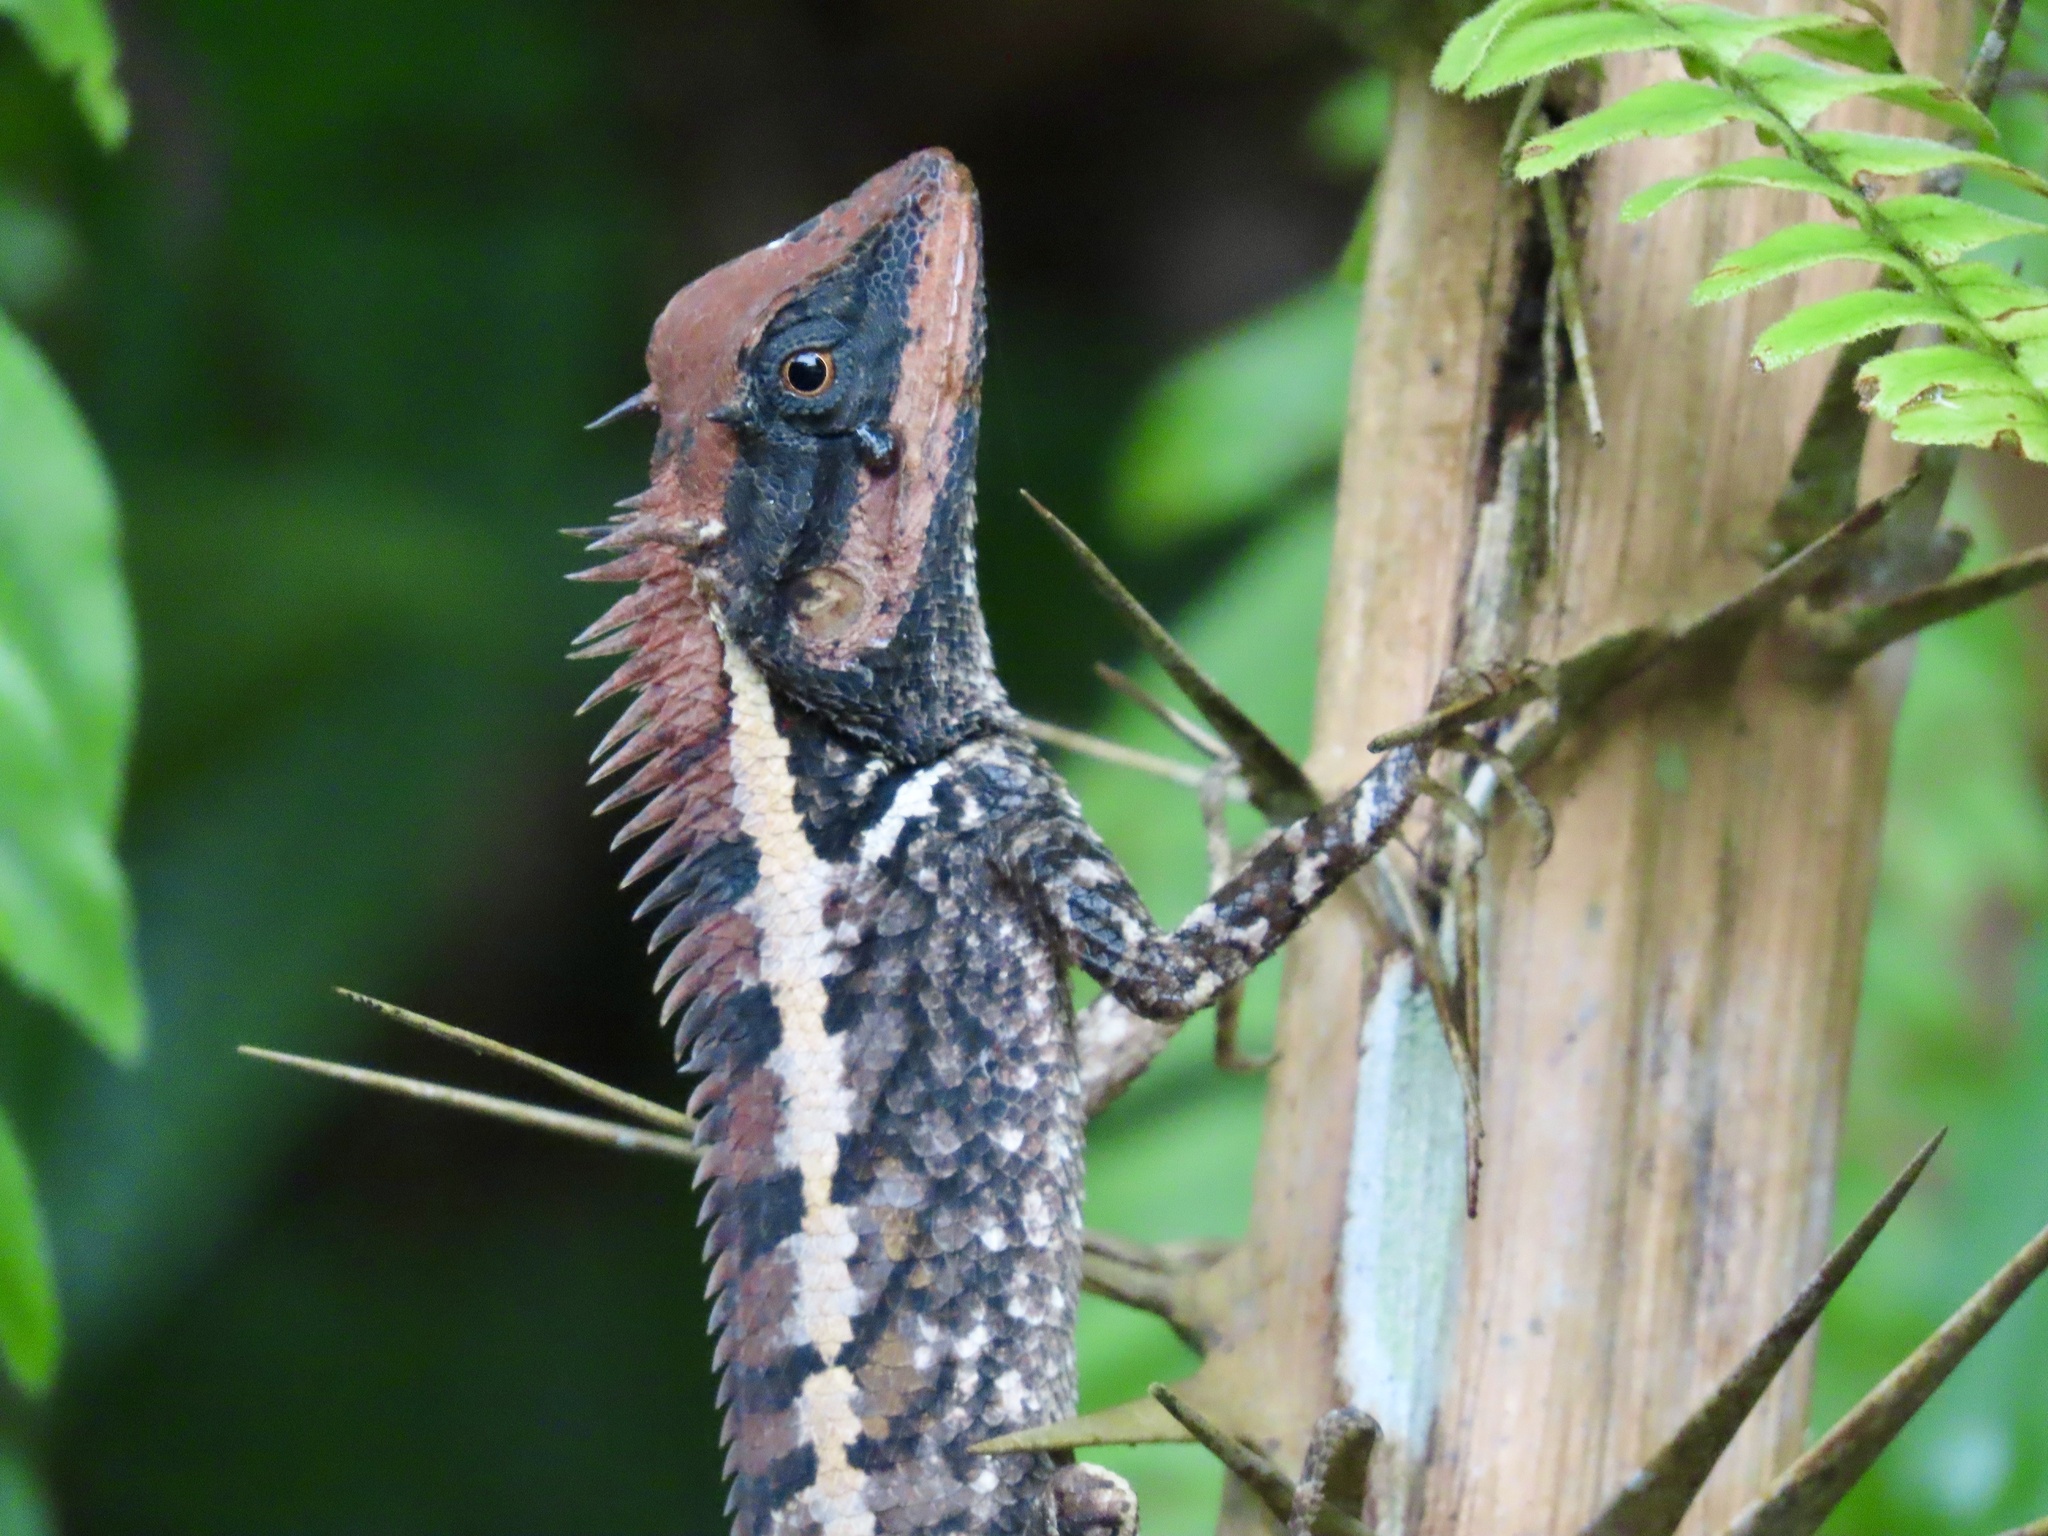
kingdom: Animalia
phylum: Chordata
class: Squamata
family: Agamidae
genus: Calotes
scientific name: Calotes emma
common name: Thailand bloodsucker
